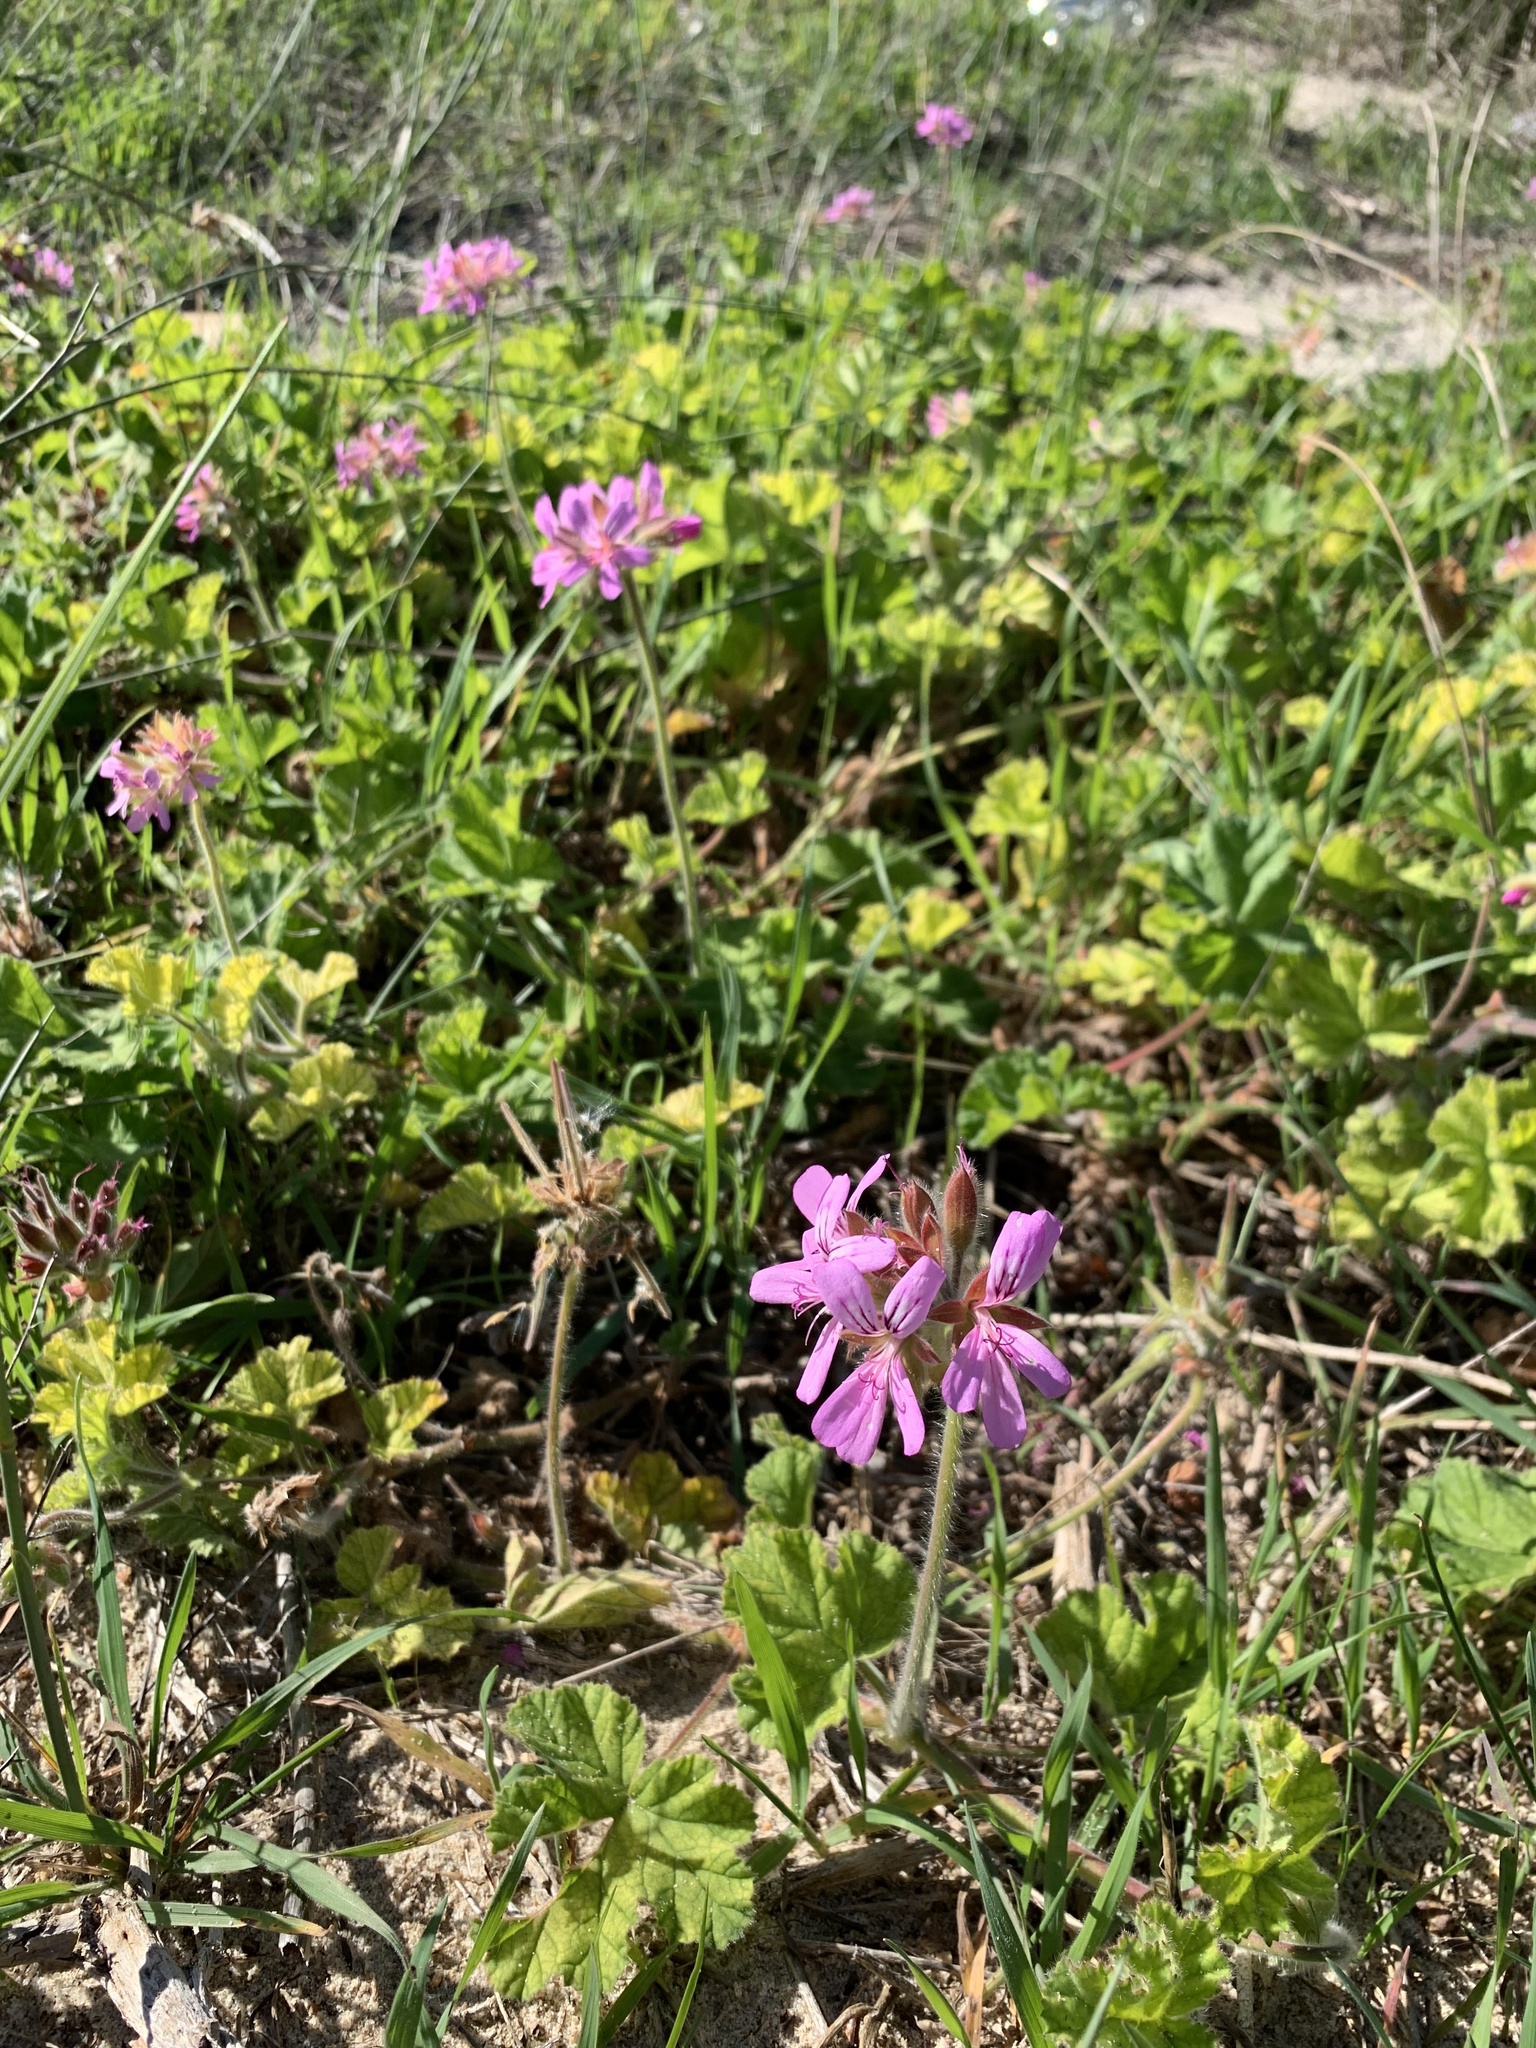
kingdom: Plantae
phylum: Tracheophyta
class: Magnoliopsida
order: Geraniales
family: Geraniaceae
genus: Pelargonium
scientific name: Pelargonium capitatum
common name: Rose scented geranium
